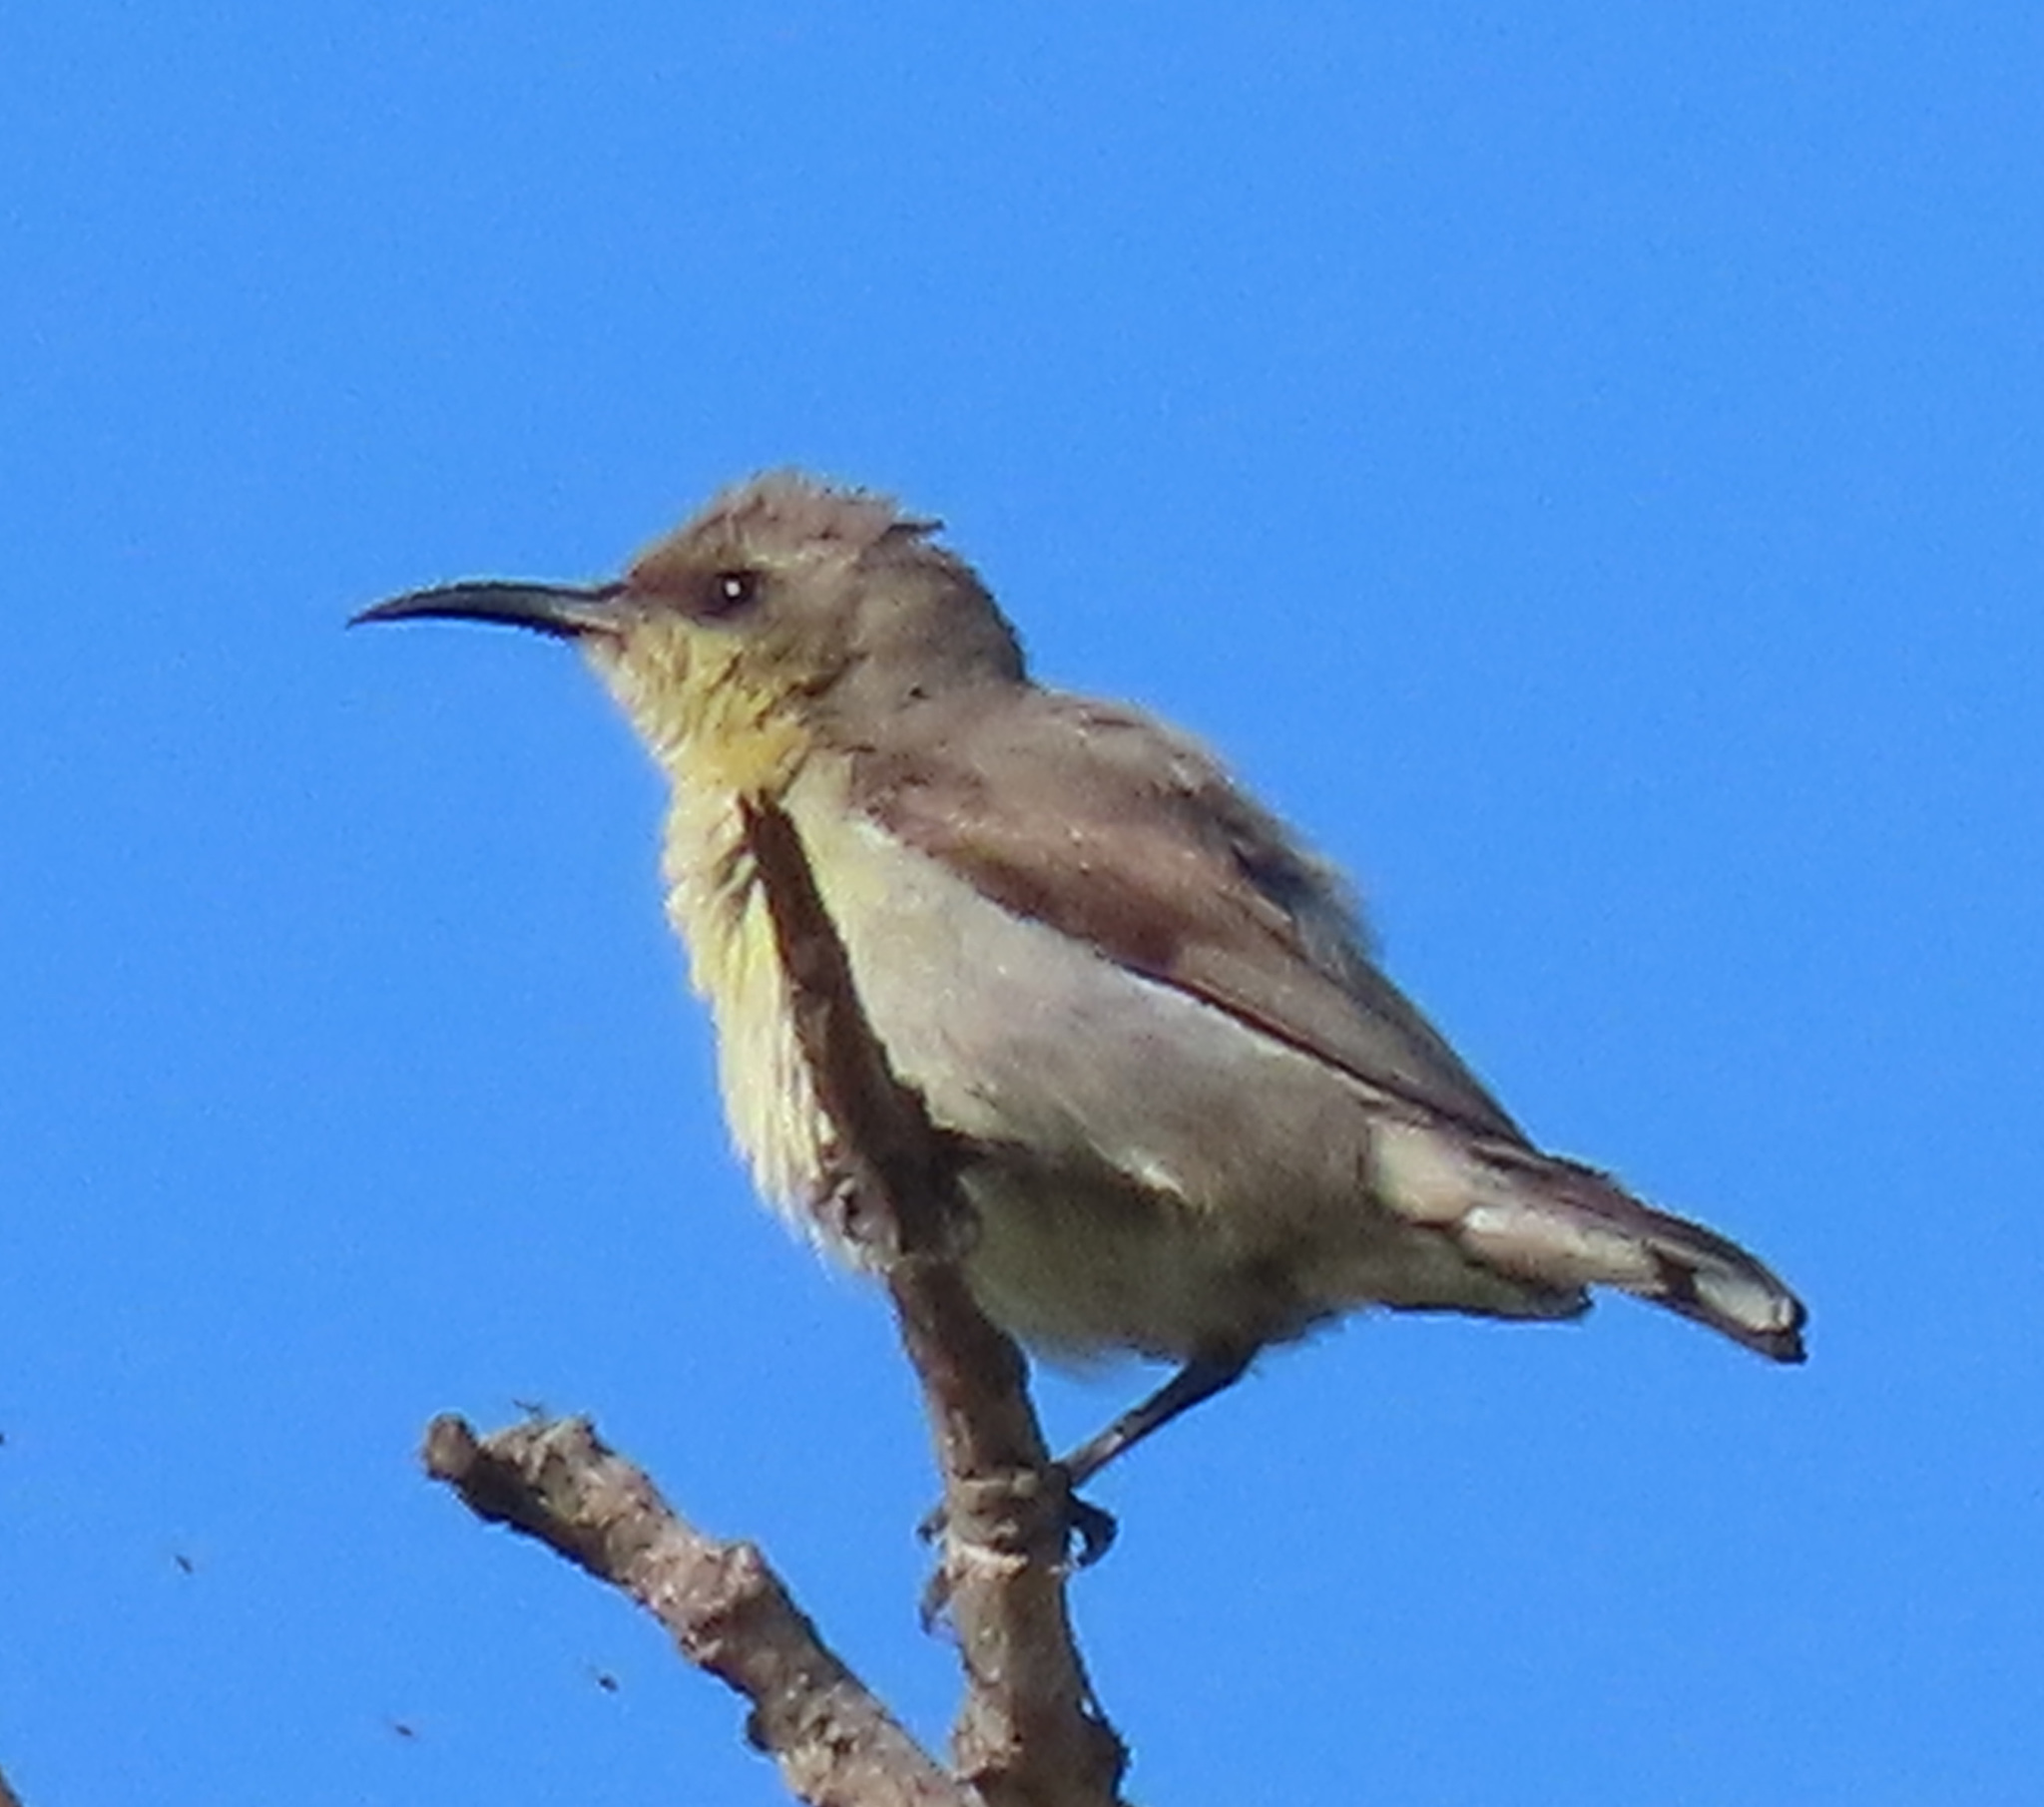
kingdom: Animalia
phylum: Chordata
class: Aves
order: Passeriformes
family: Nectariniidae
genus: Cinnyris
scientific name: Cinnyris asiaticus
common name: Purple sunbird
